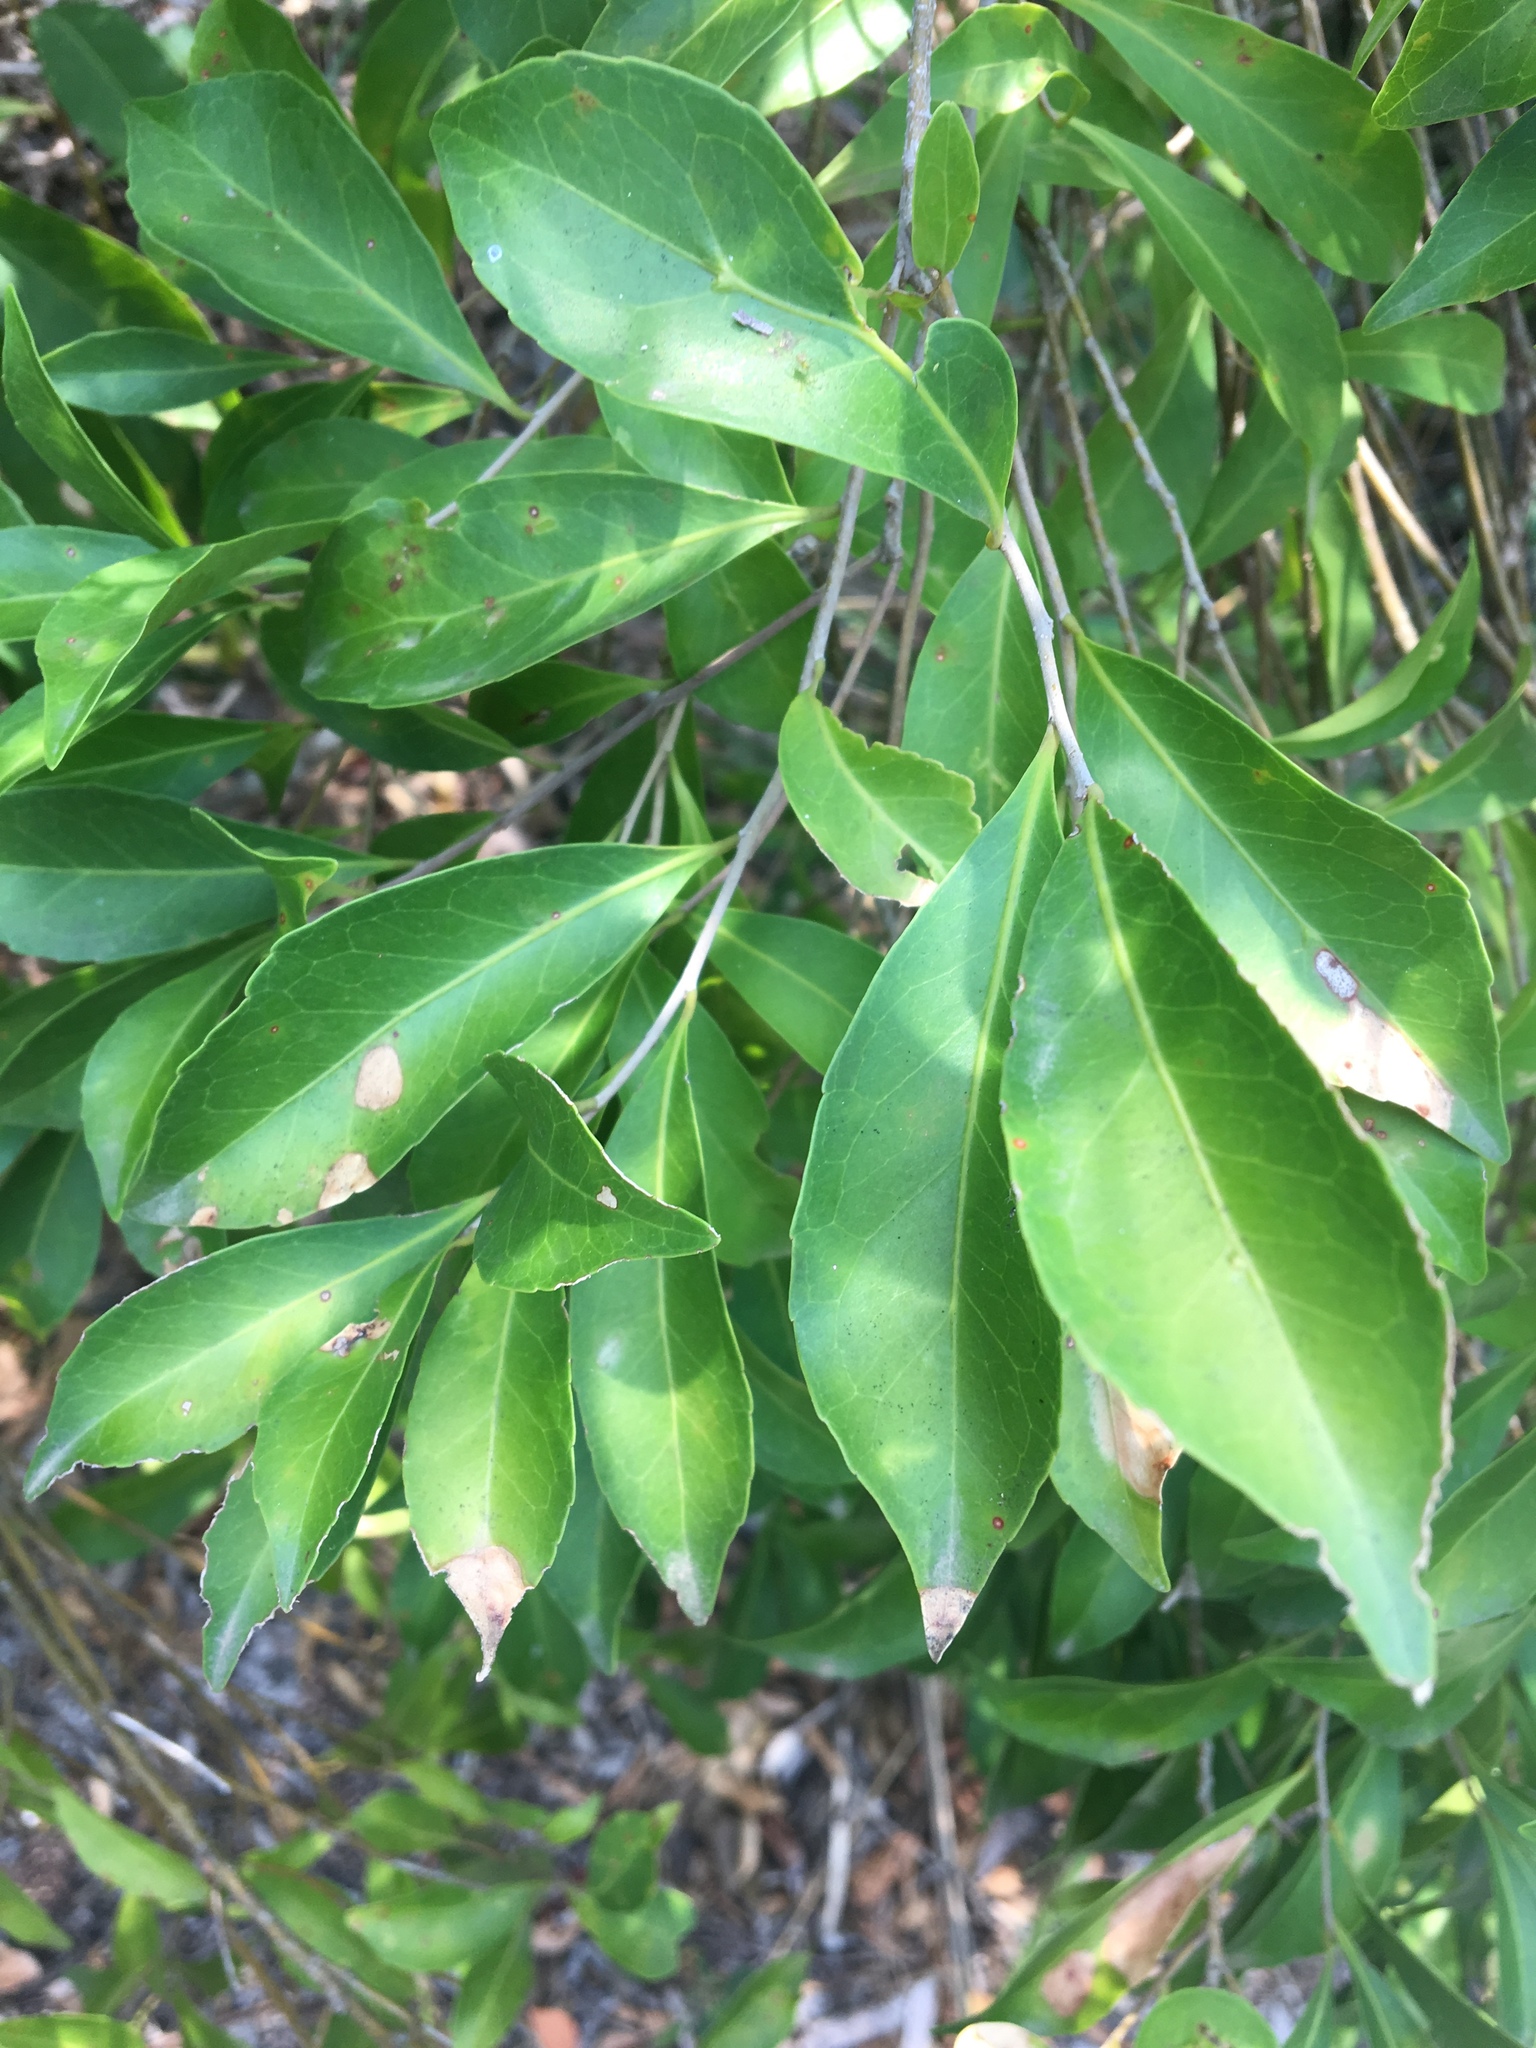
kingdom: Plantae
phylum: Tracheophyta
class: Magnoliopsida
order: Oxalidales
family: Elaeocarpaceae
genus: Elaeocarpus
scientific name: Elaeocarpus obovatus
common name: Freckled oliveberry
